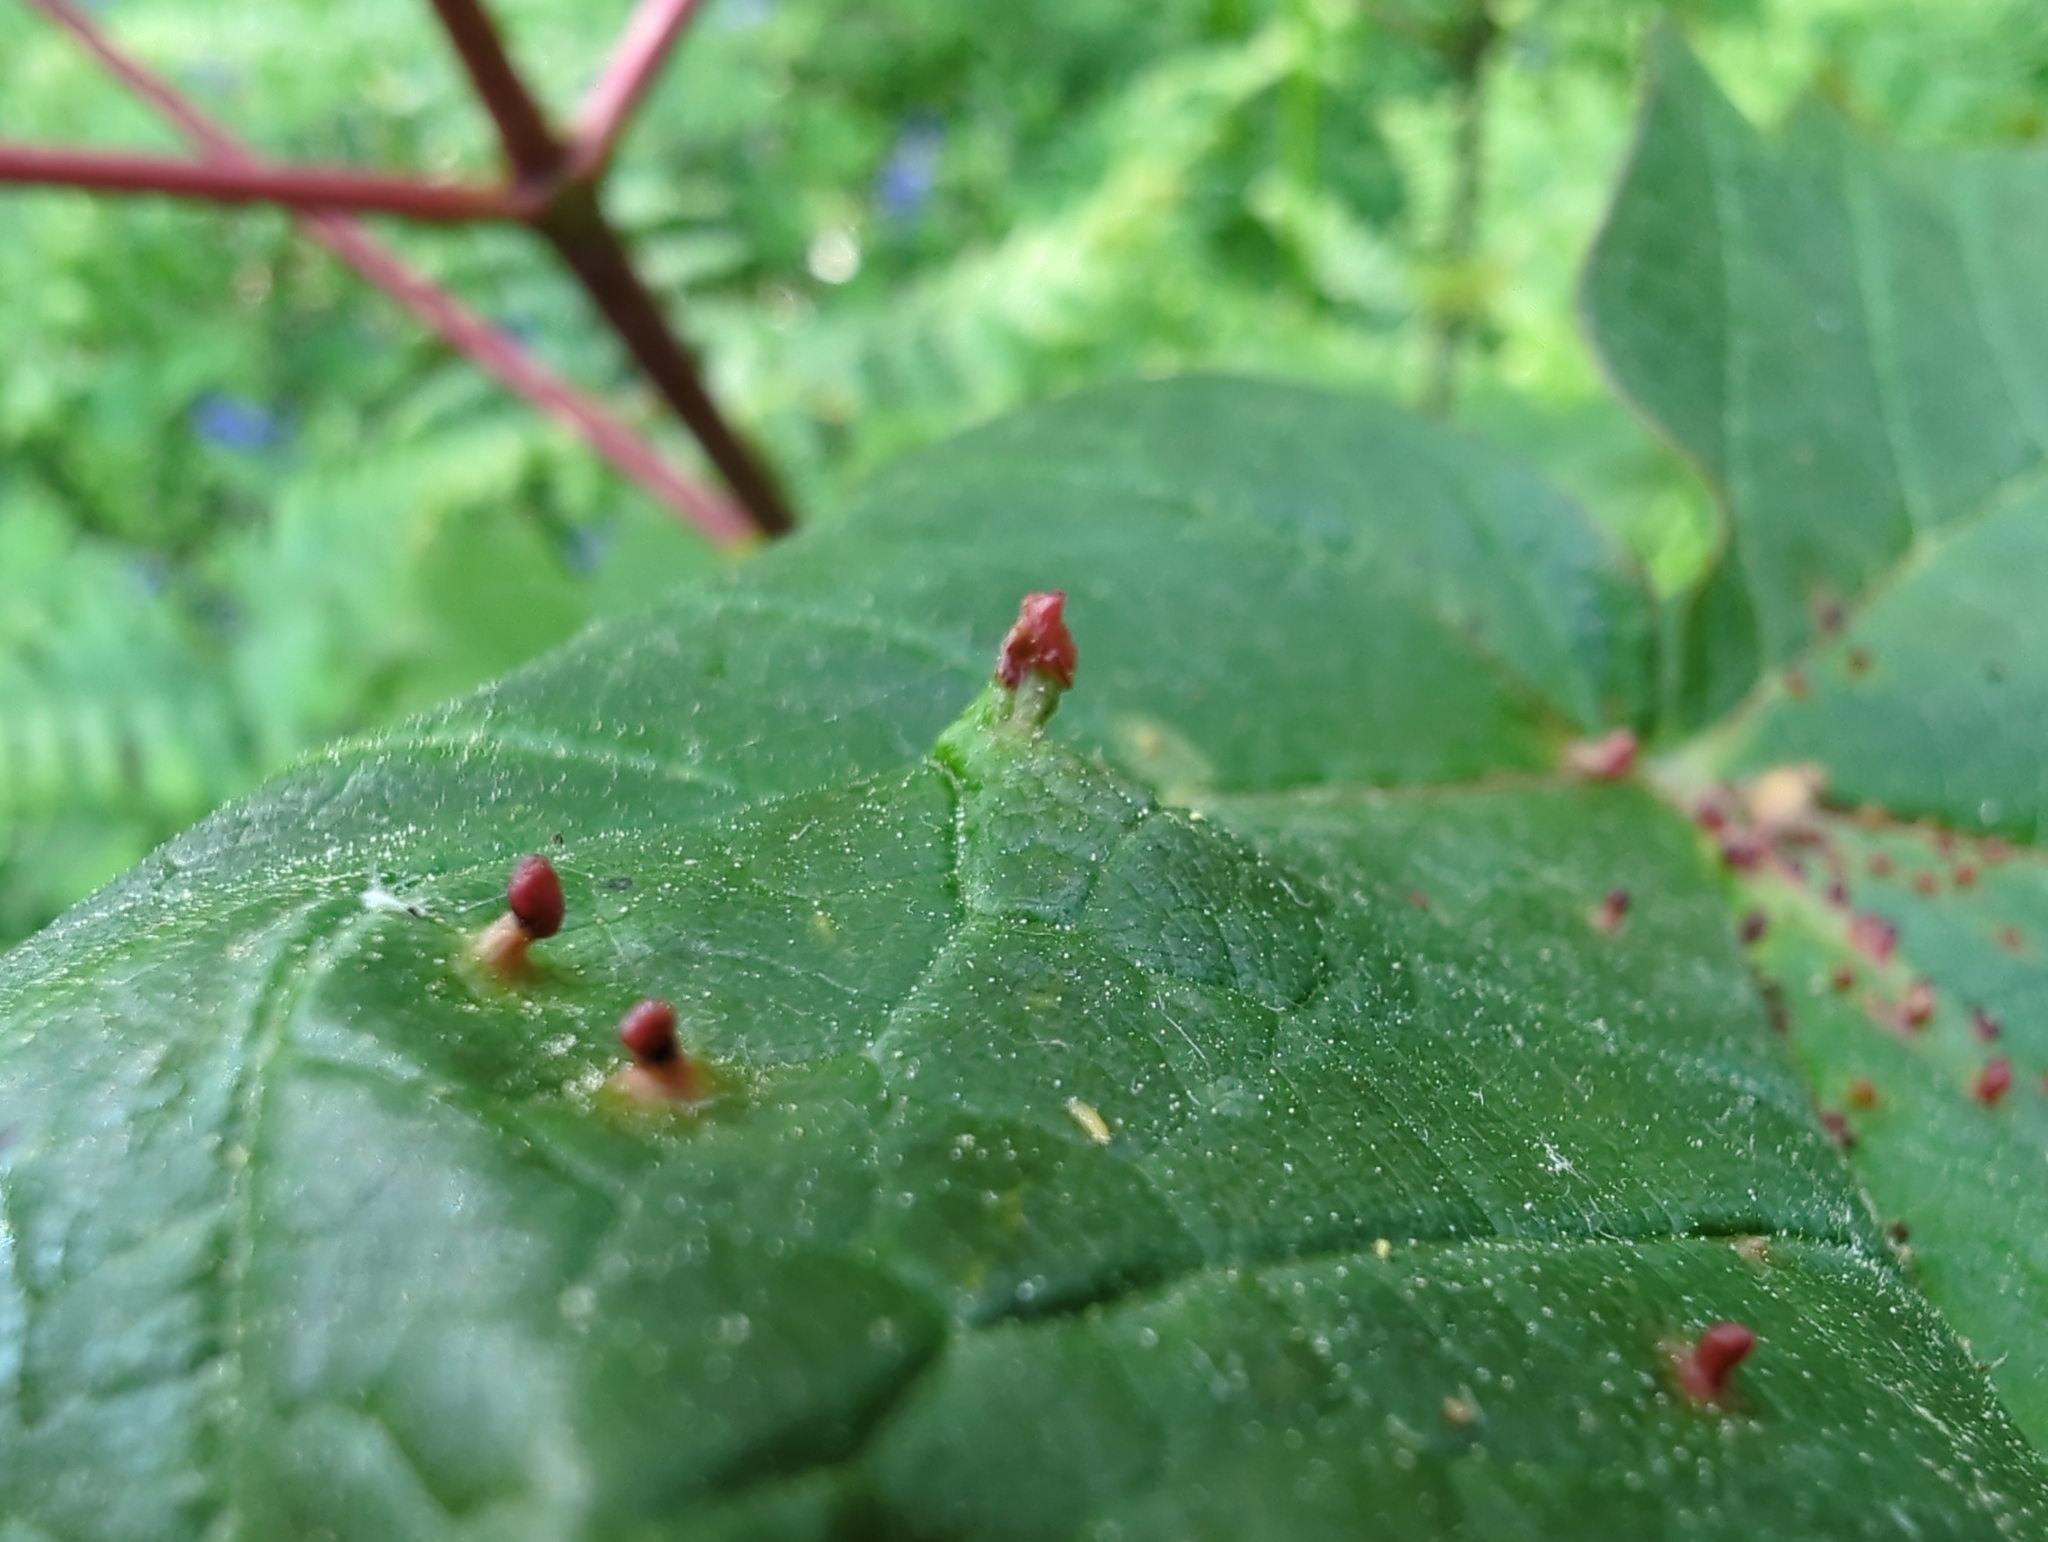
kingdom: Animalia
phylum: Arthropoda
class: Arachnida
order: Trombidiformes
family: Eriophyidae
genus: Aceria
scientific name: Aceria macrorhynchus
